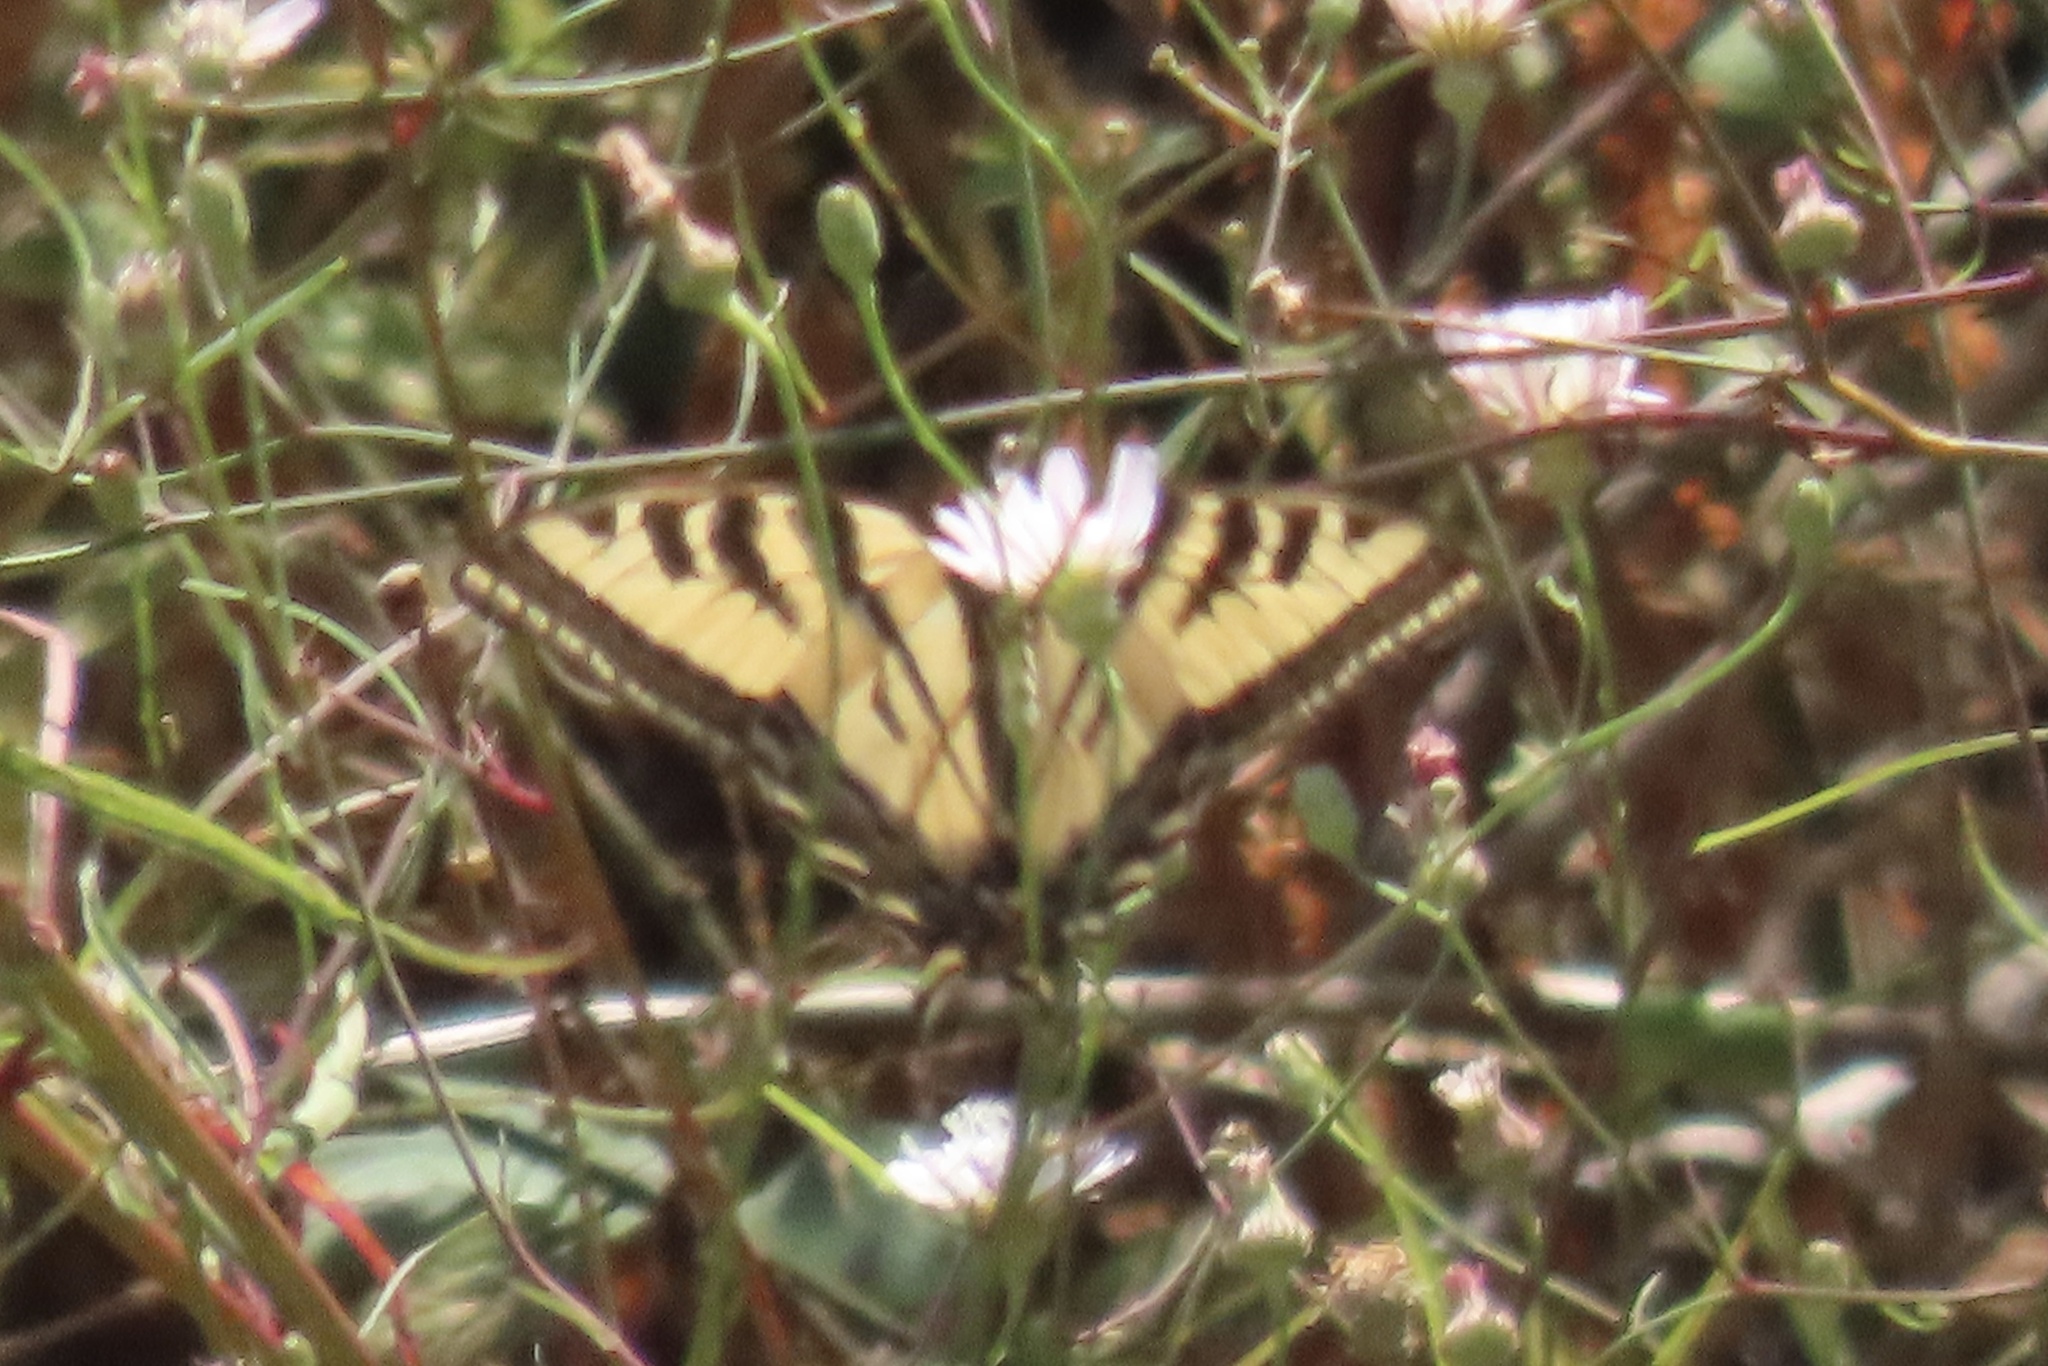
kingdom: Animalia
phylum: Arthropoda
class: Insecta
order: Lepidoptera
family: Papilionidae
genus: Papilio
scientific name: Papilio rutulus
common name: Western tiger swallowtail
